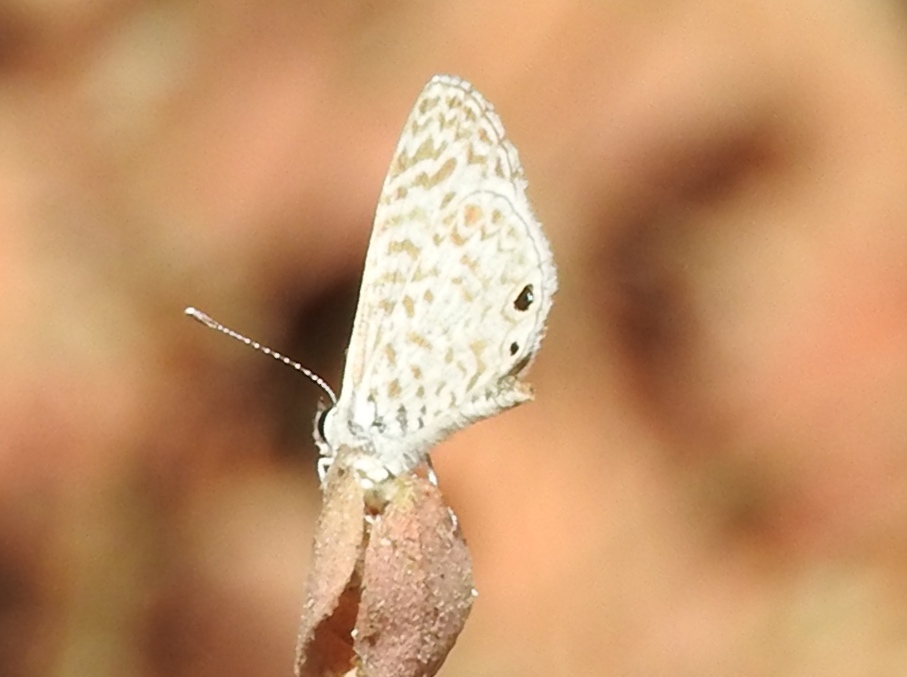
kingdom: Animalia
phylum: Arthropoda
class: Insecta
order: Lepidoptera
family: Lycaenidae
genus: Leptotes
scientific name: Leptotes theonus
